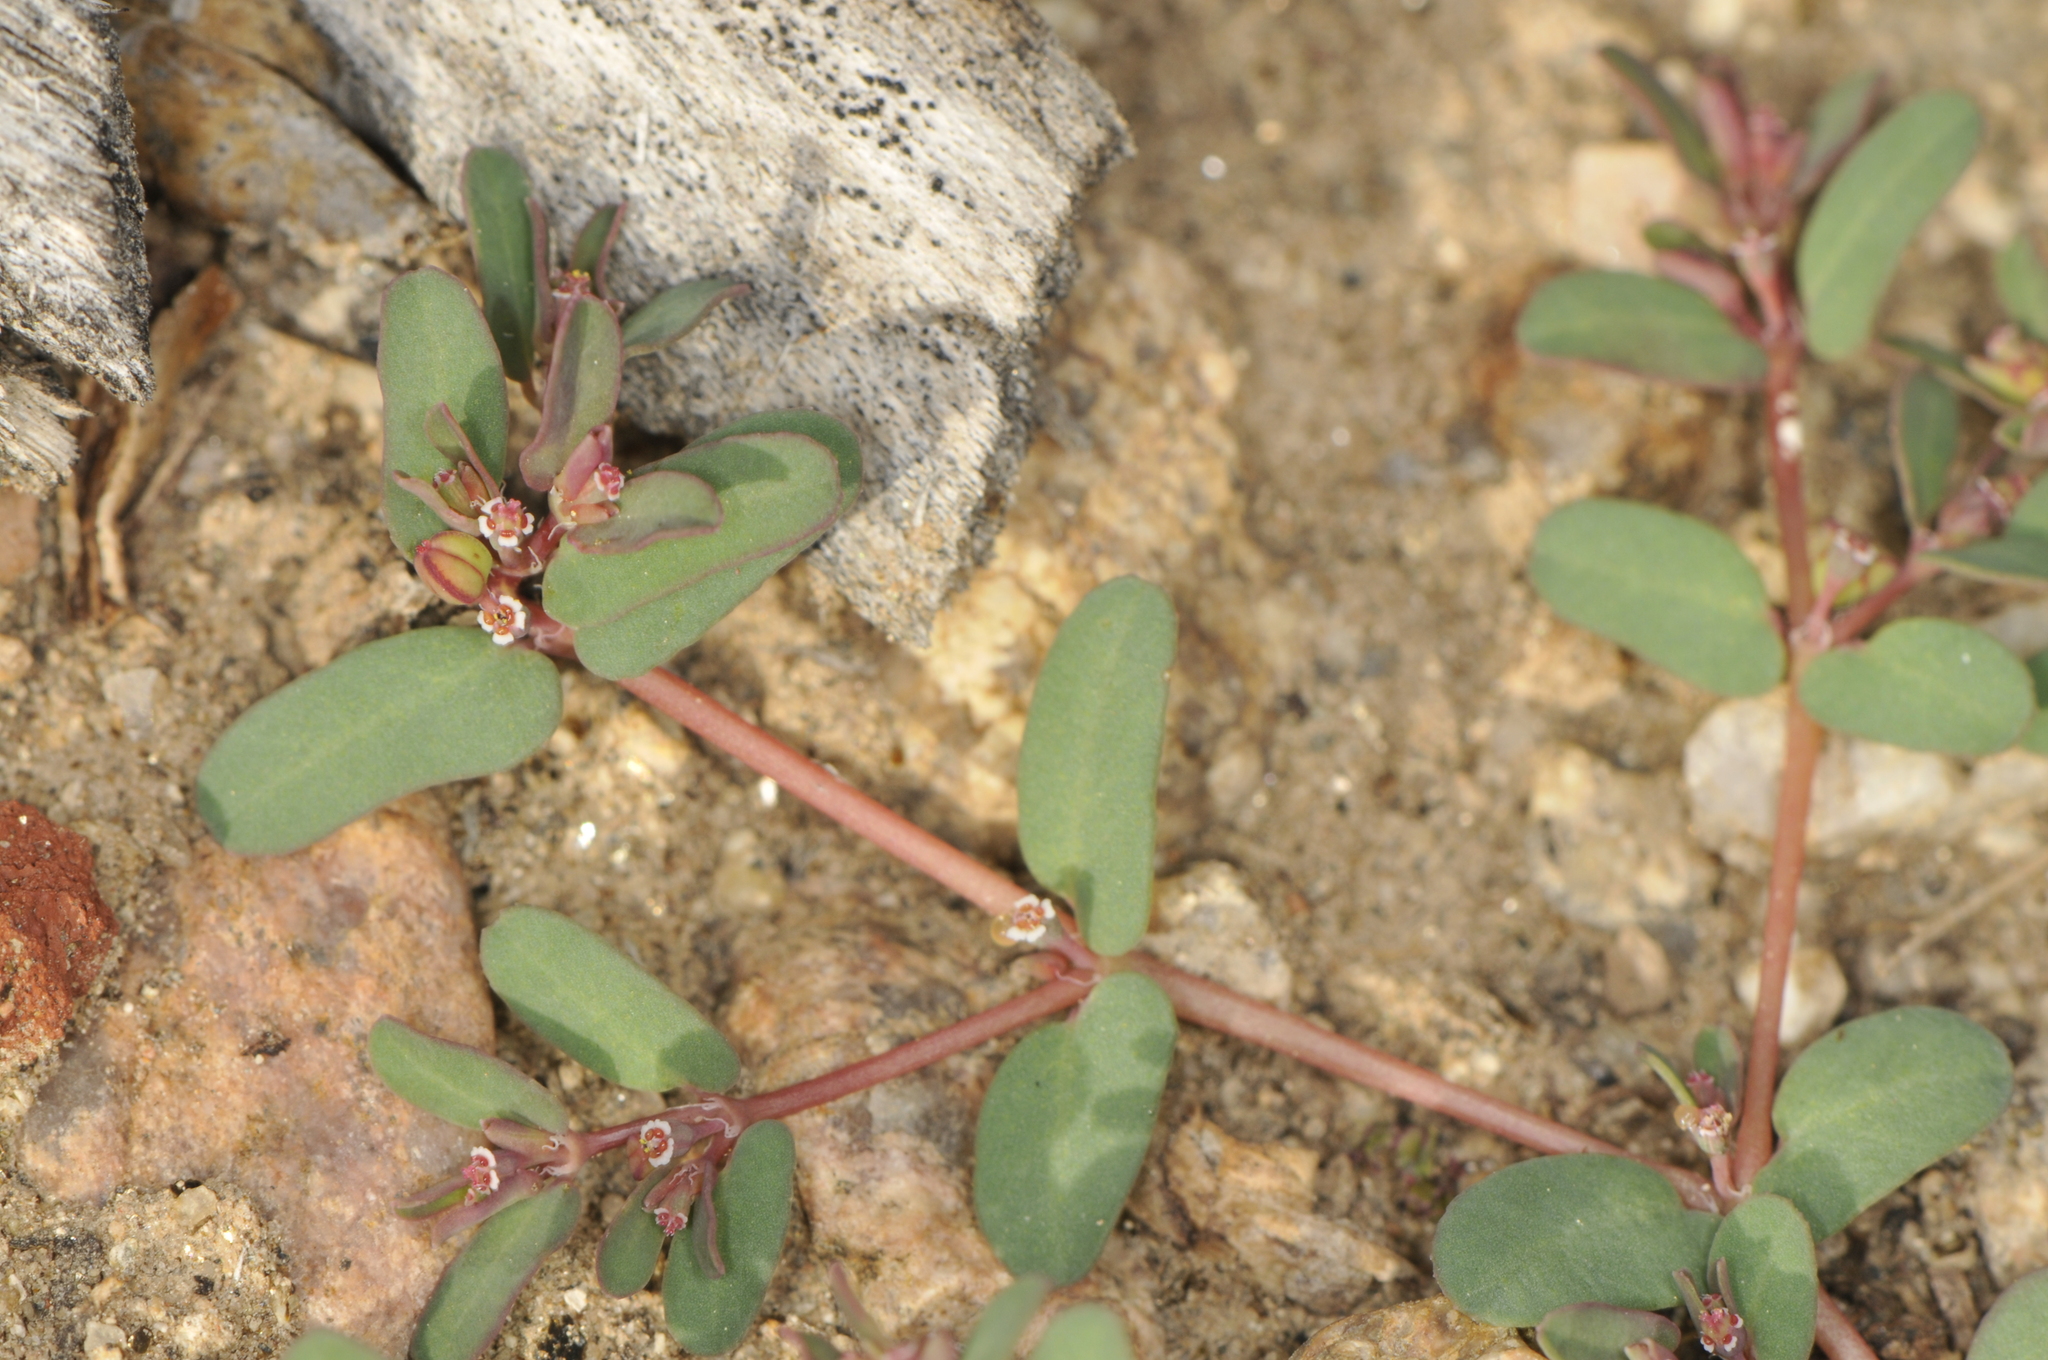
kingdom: Plantae
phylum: Tracheophyta
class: Magnoliopsida
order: Malpighiales
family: Euphorbiaceae
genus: Euphorbia
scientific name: Euphorbia glyptosperma
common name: Corrugate-seeded spurge
